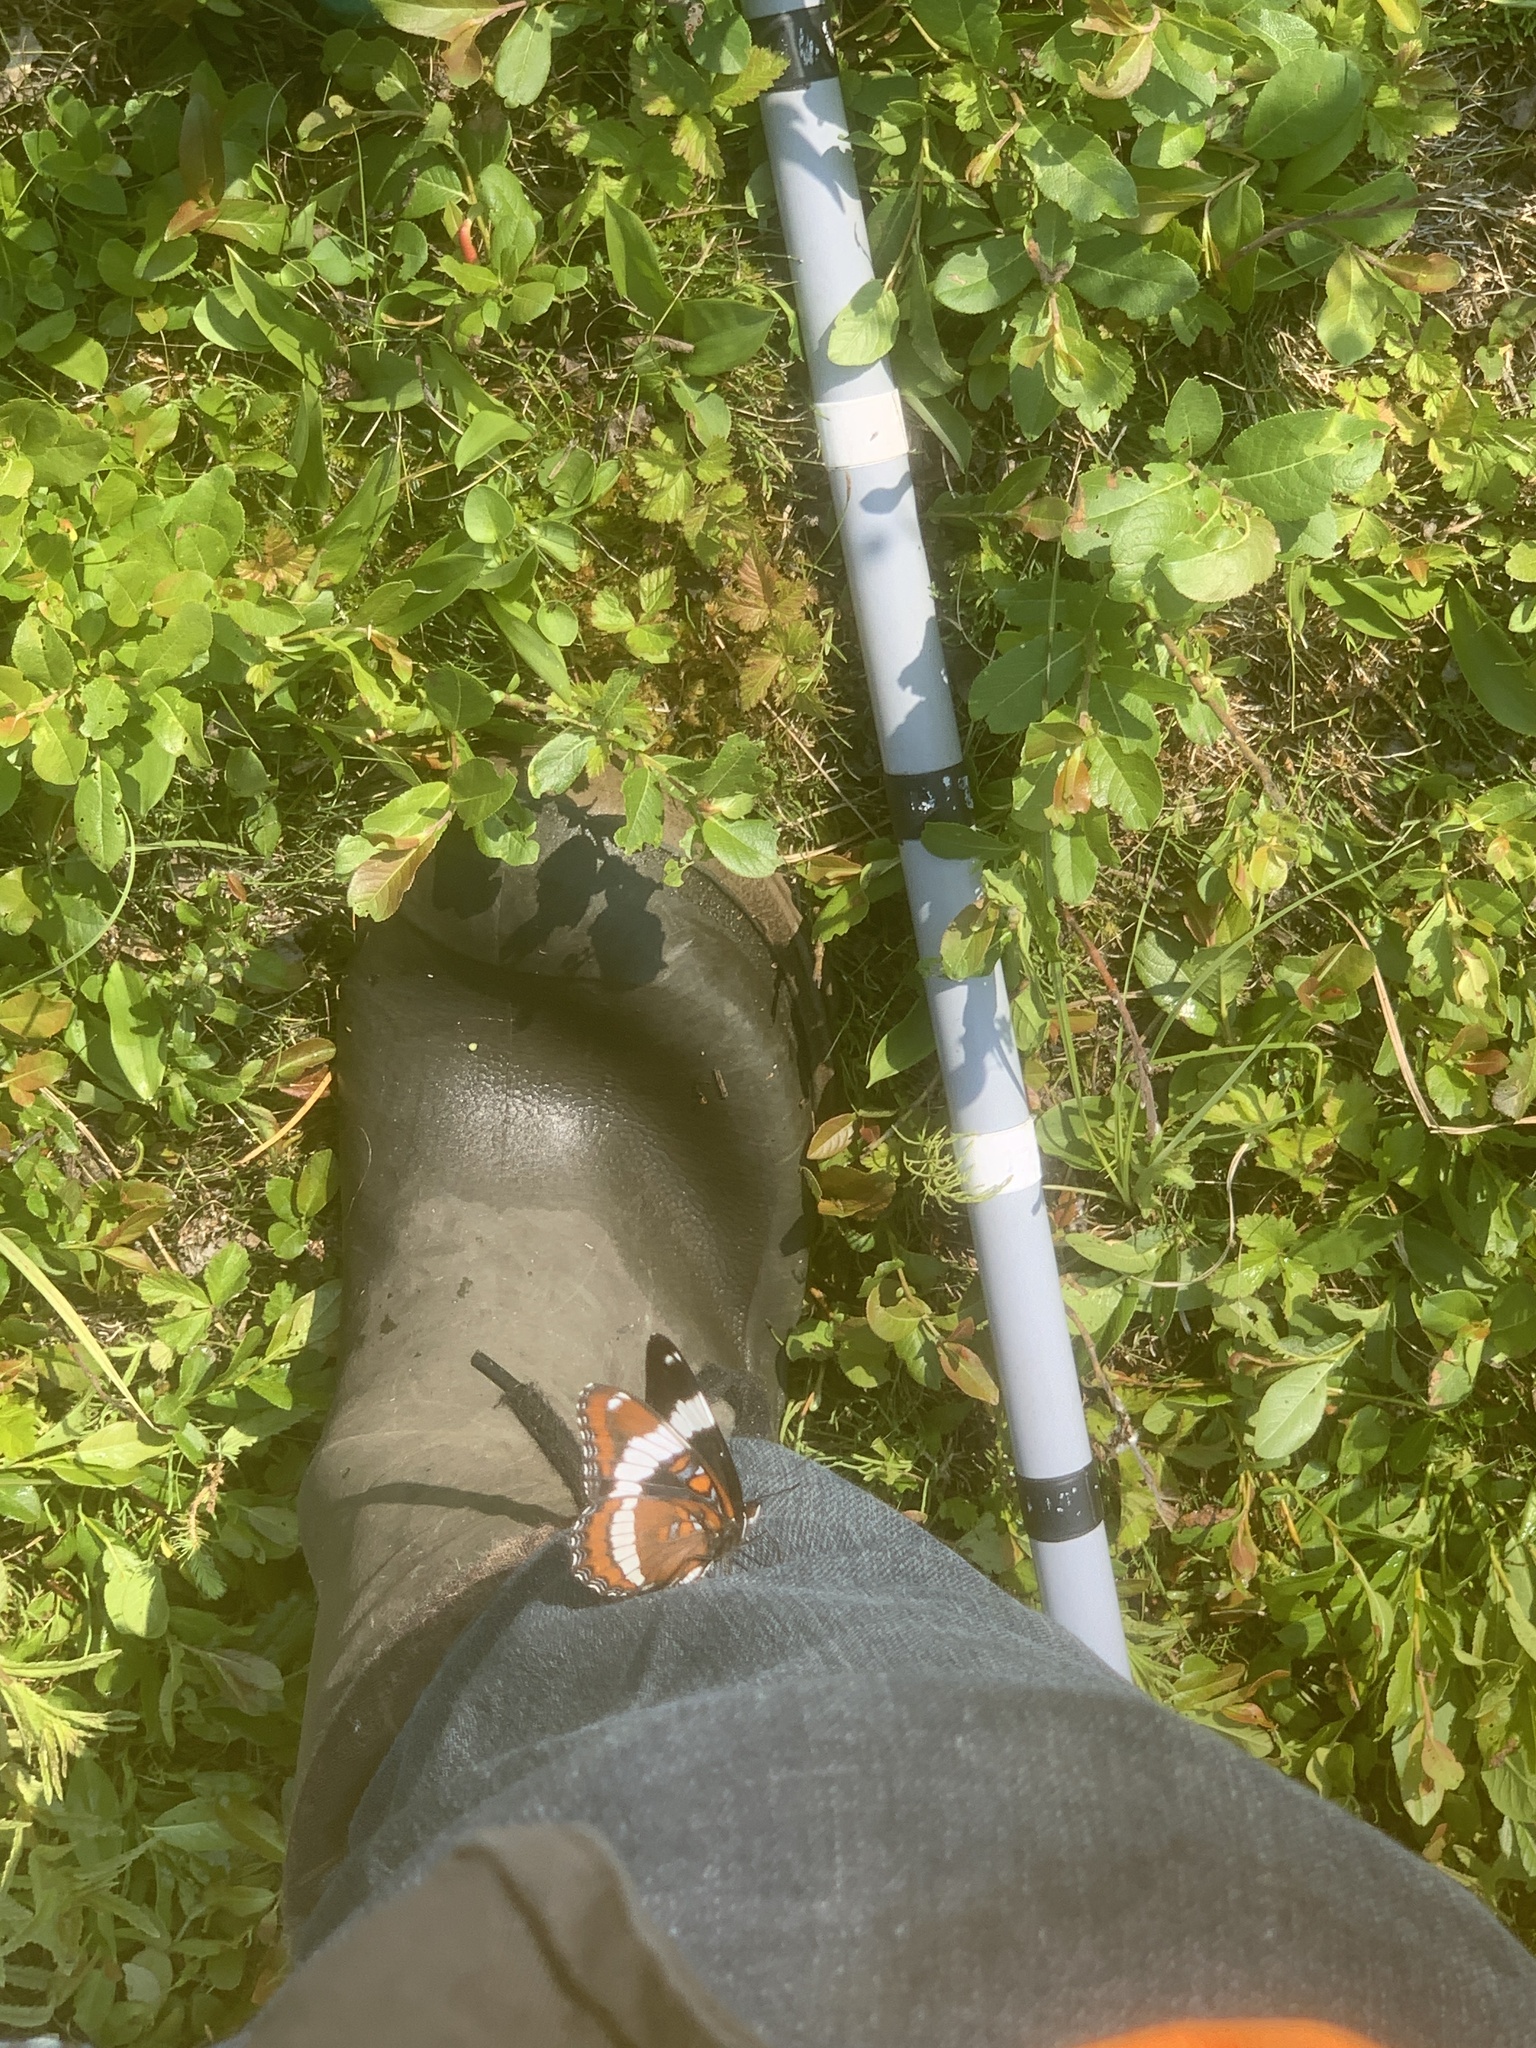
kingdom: Animalia
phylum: Arthropoda
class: Insecta
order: Lepidoptera
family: Nymphalidae
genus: Limenitis
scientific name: Limenitis arthemis
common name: Red-spotted admiral
